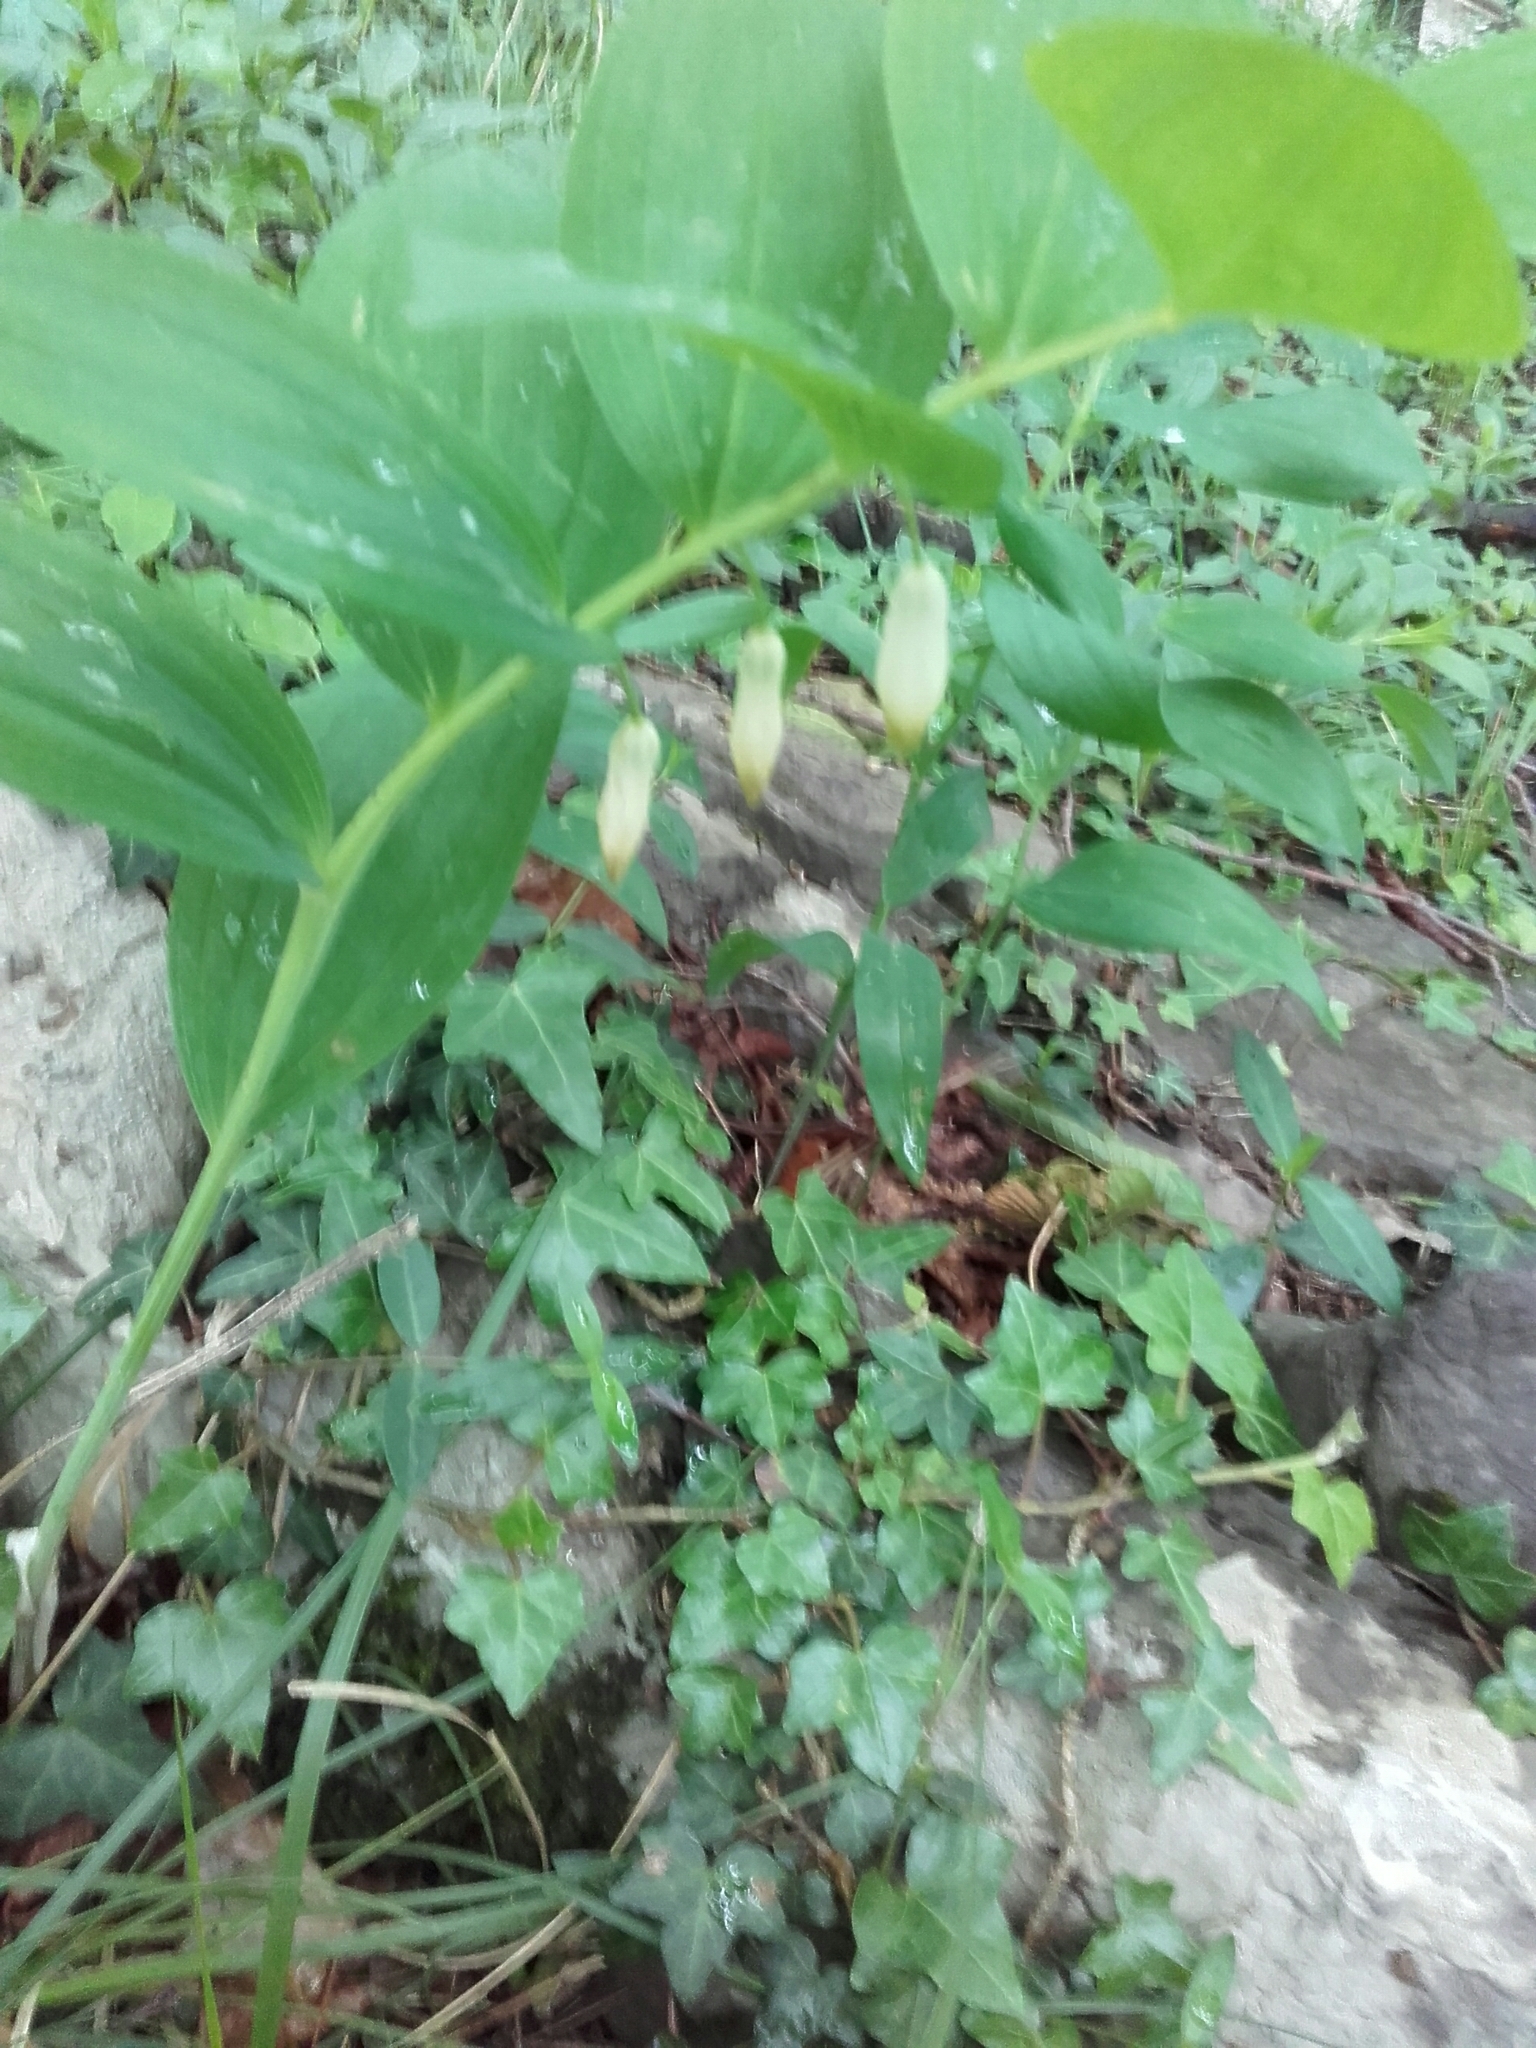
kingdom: Plantae
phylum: Tracheophyta
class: Liliopsida
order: Asparagales
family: Asparagaceae
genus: Polygonatum
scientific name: Polygonatum odoratum
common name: Angular solomon's-seal
